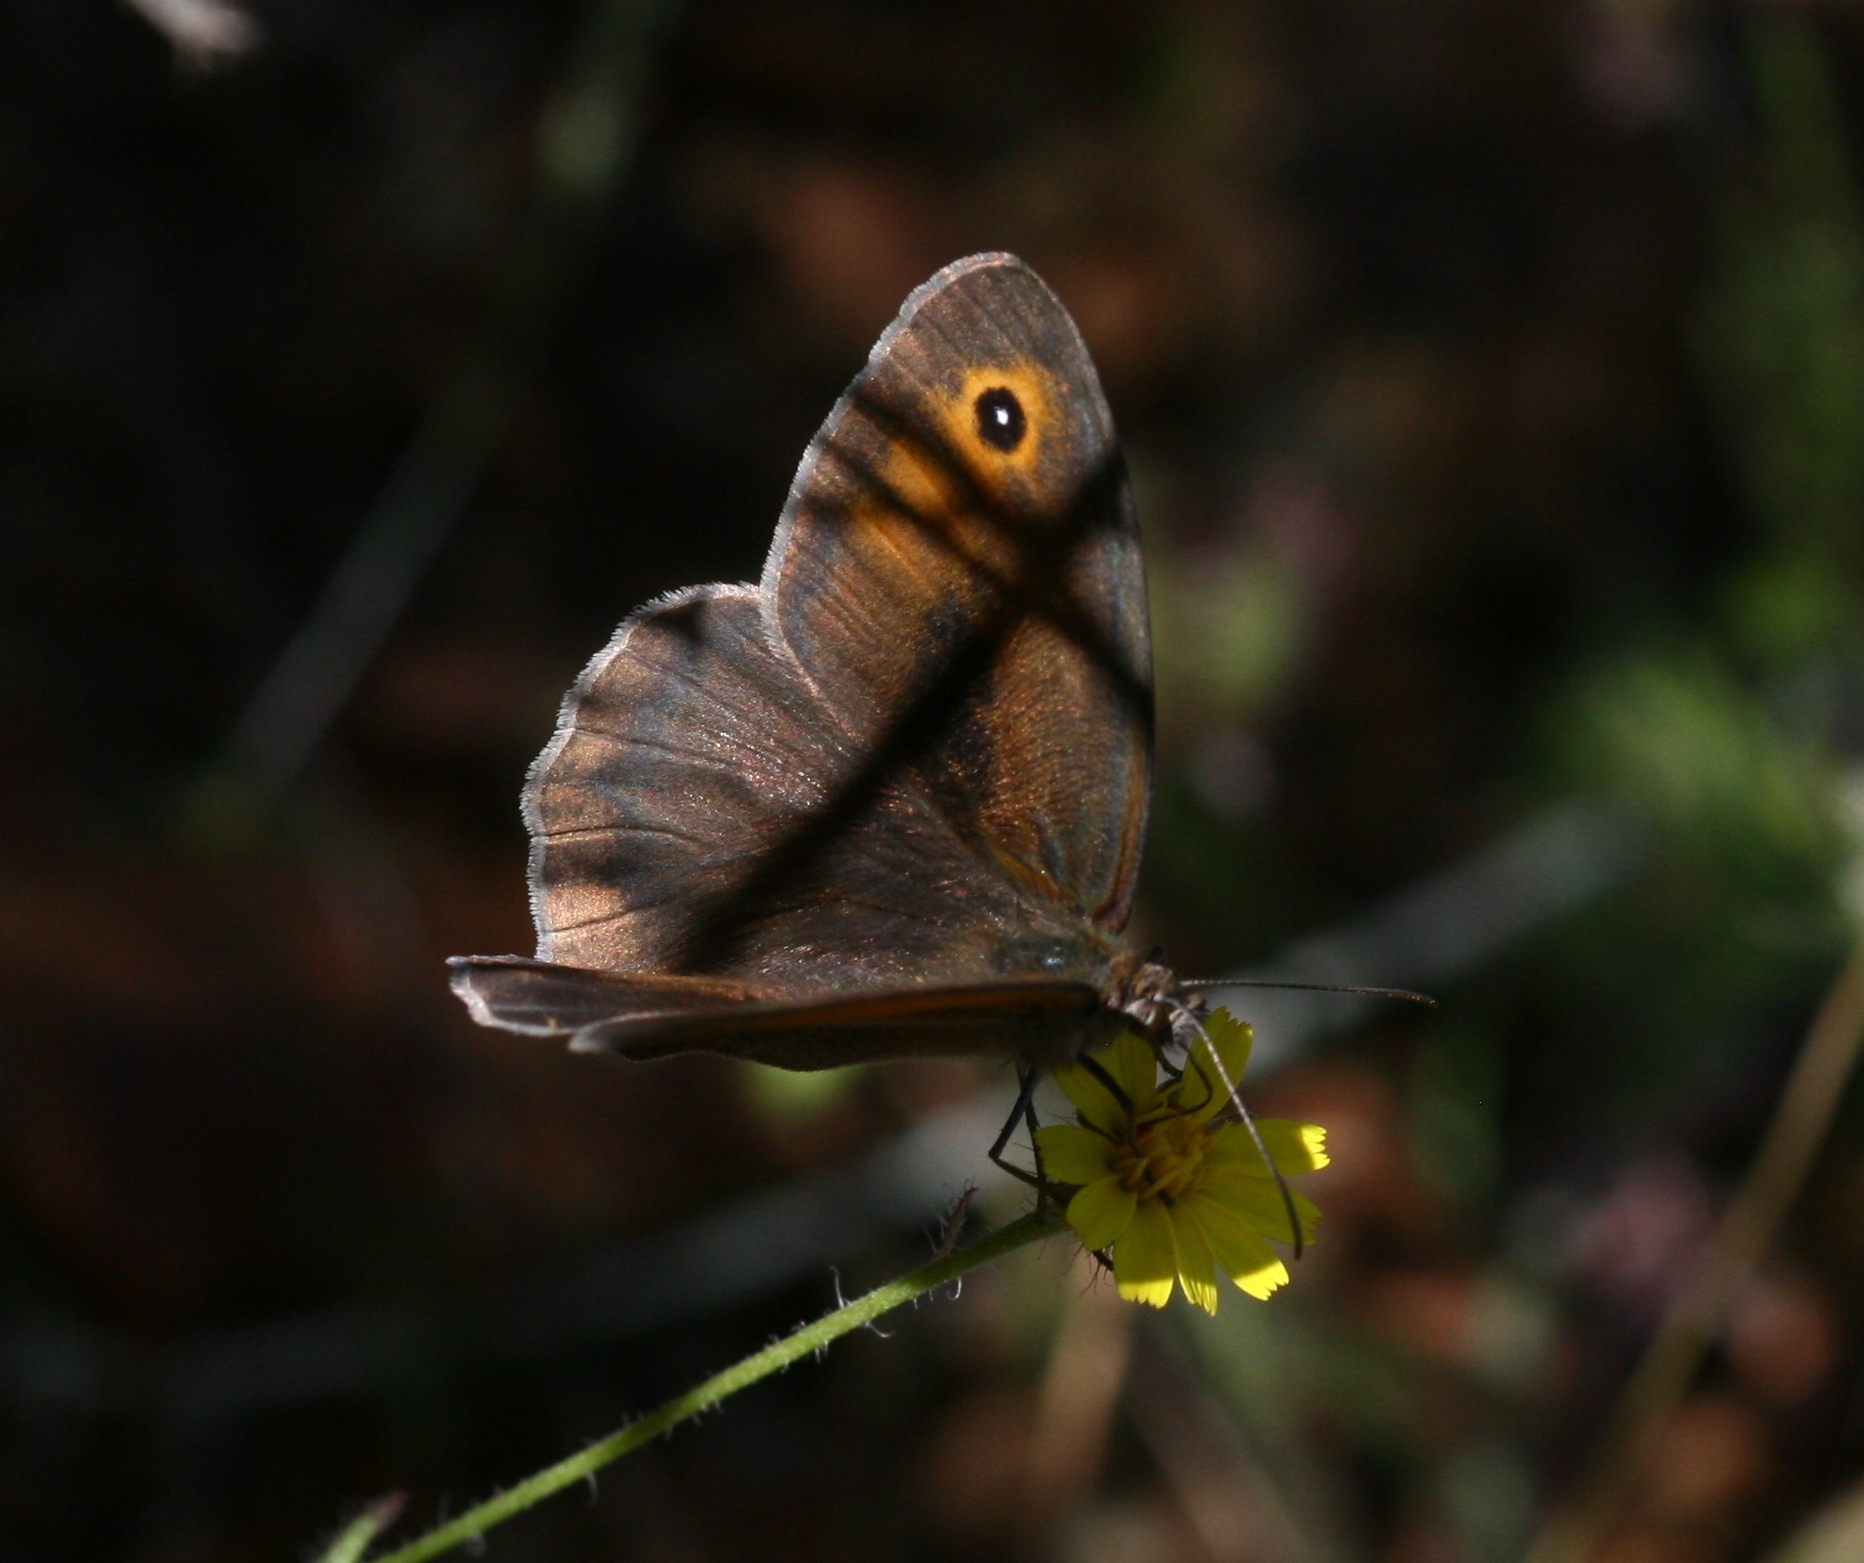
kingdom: Animalia
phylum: Arthropoda
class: Insecta
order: Lepidoptera
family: Nymphalidae
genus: Maniola
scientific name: Maniola telmessia
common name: Persian meadow brown
